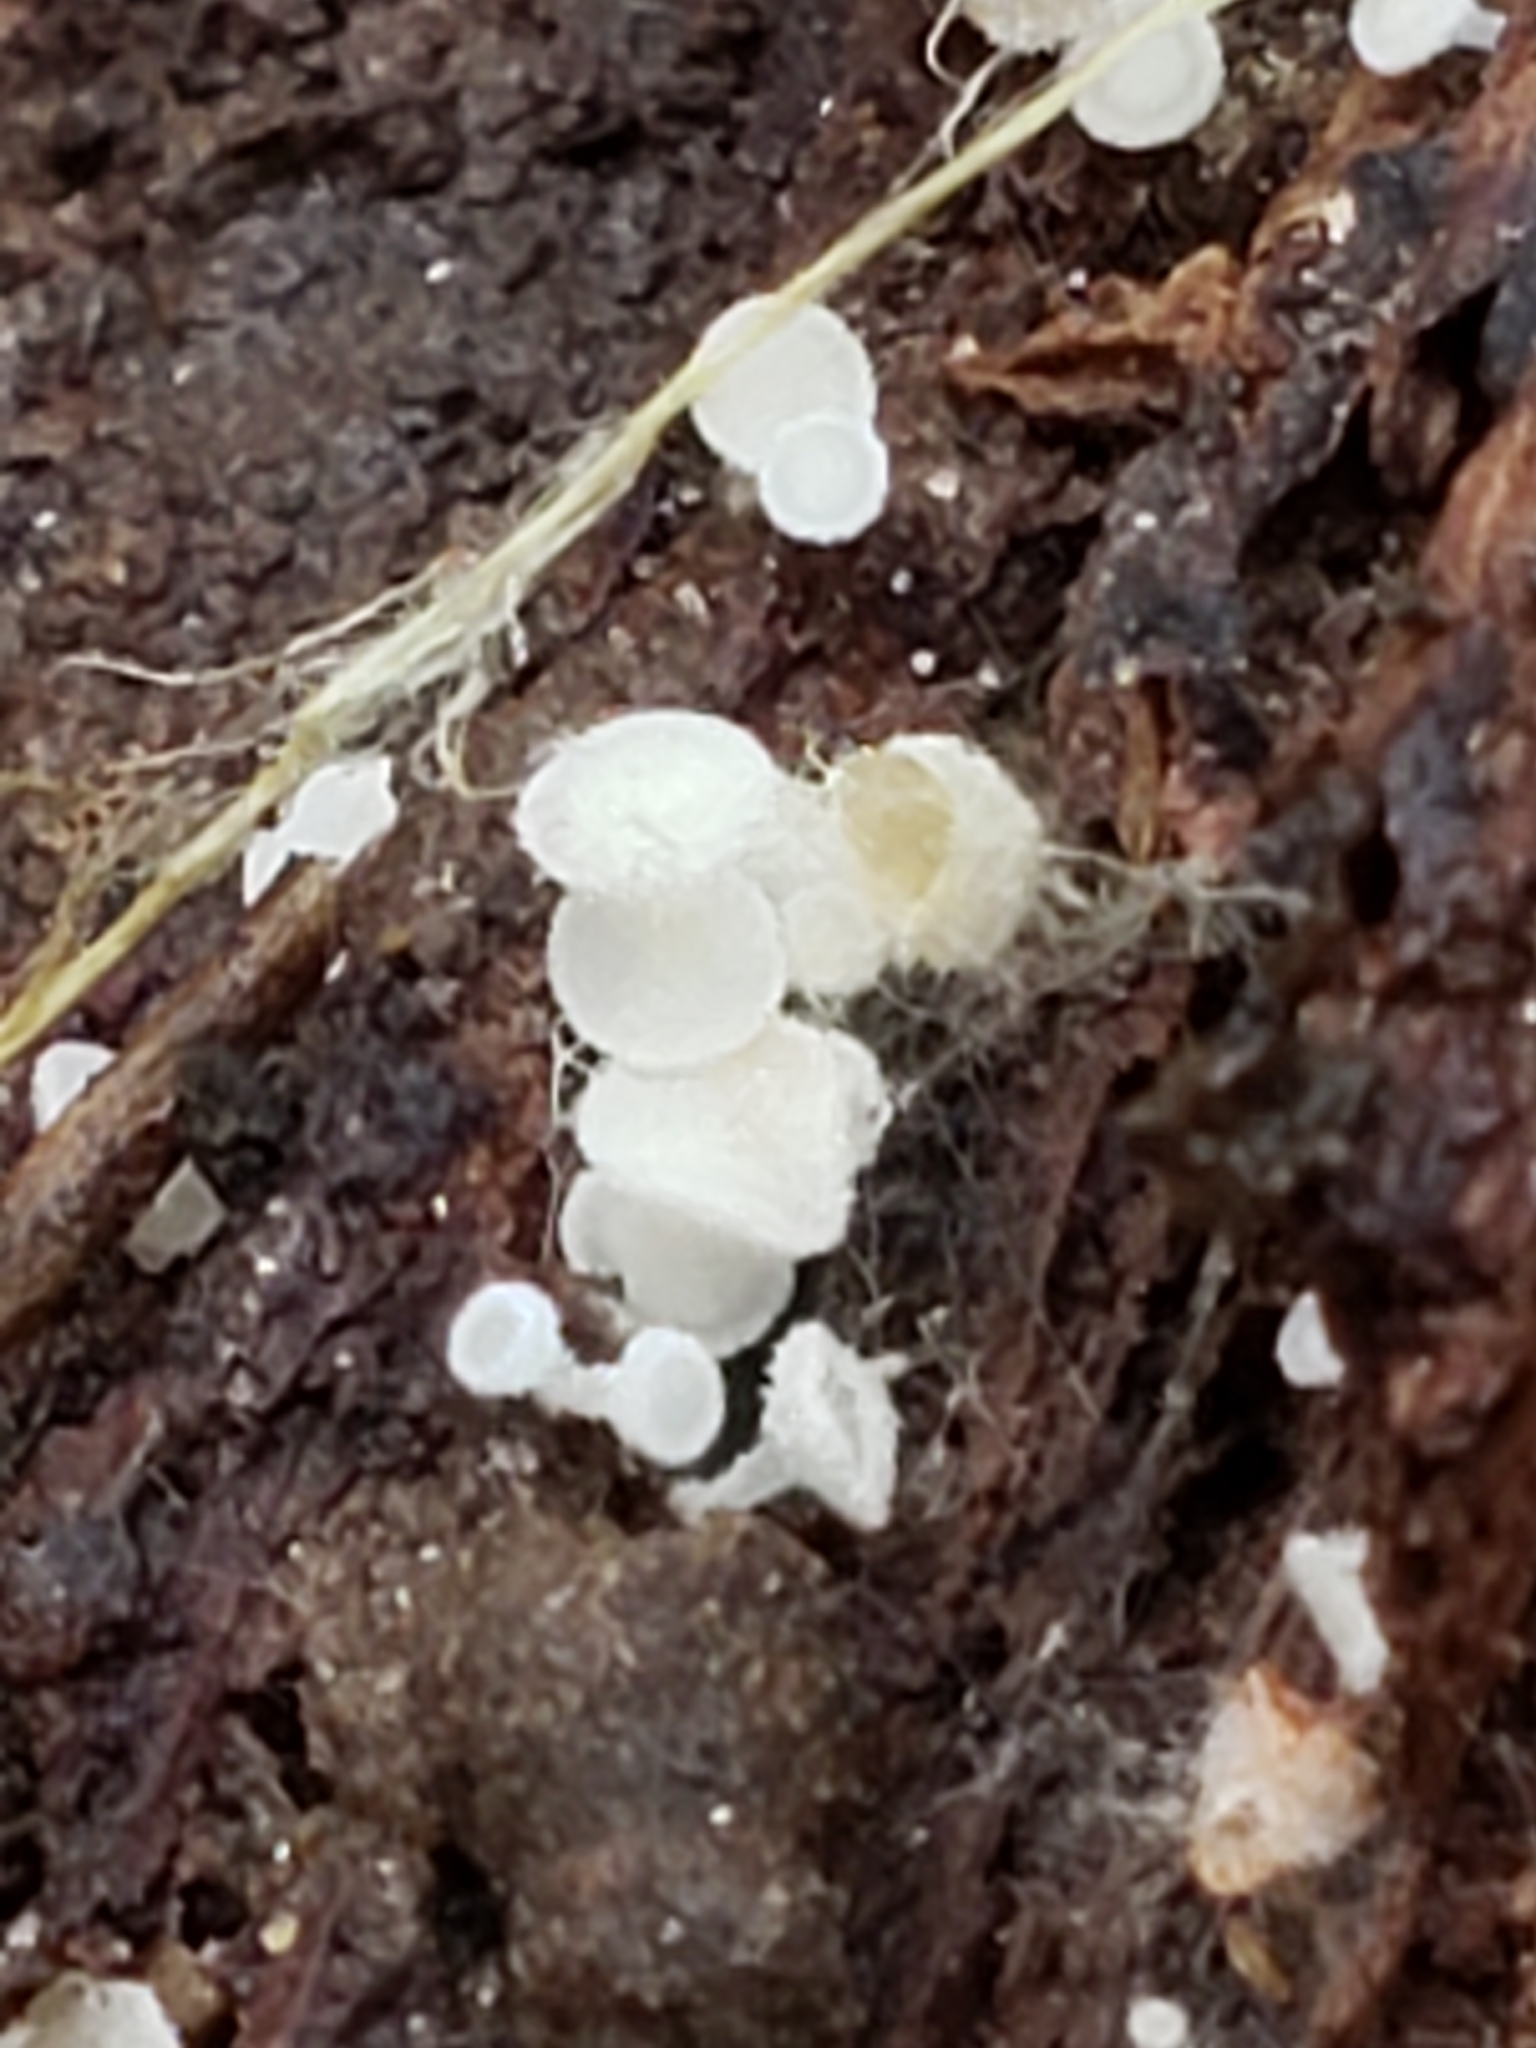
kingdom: Fungi
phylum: Ascomycota
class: Leotiomycetes
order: Helotiales
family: Lachnaceae
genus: Lachnum
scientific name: Lachnum virgineum
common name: Snowy disco
